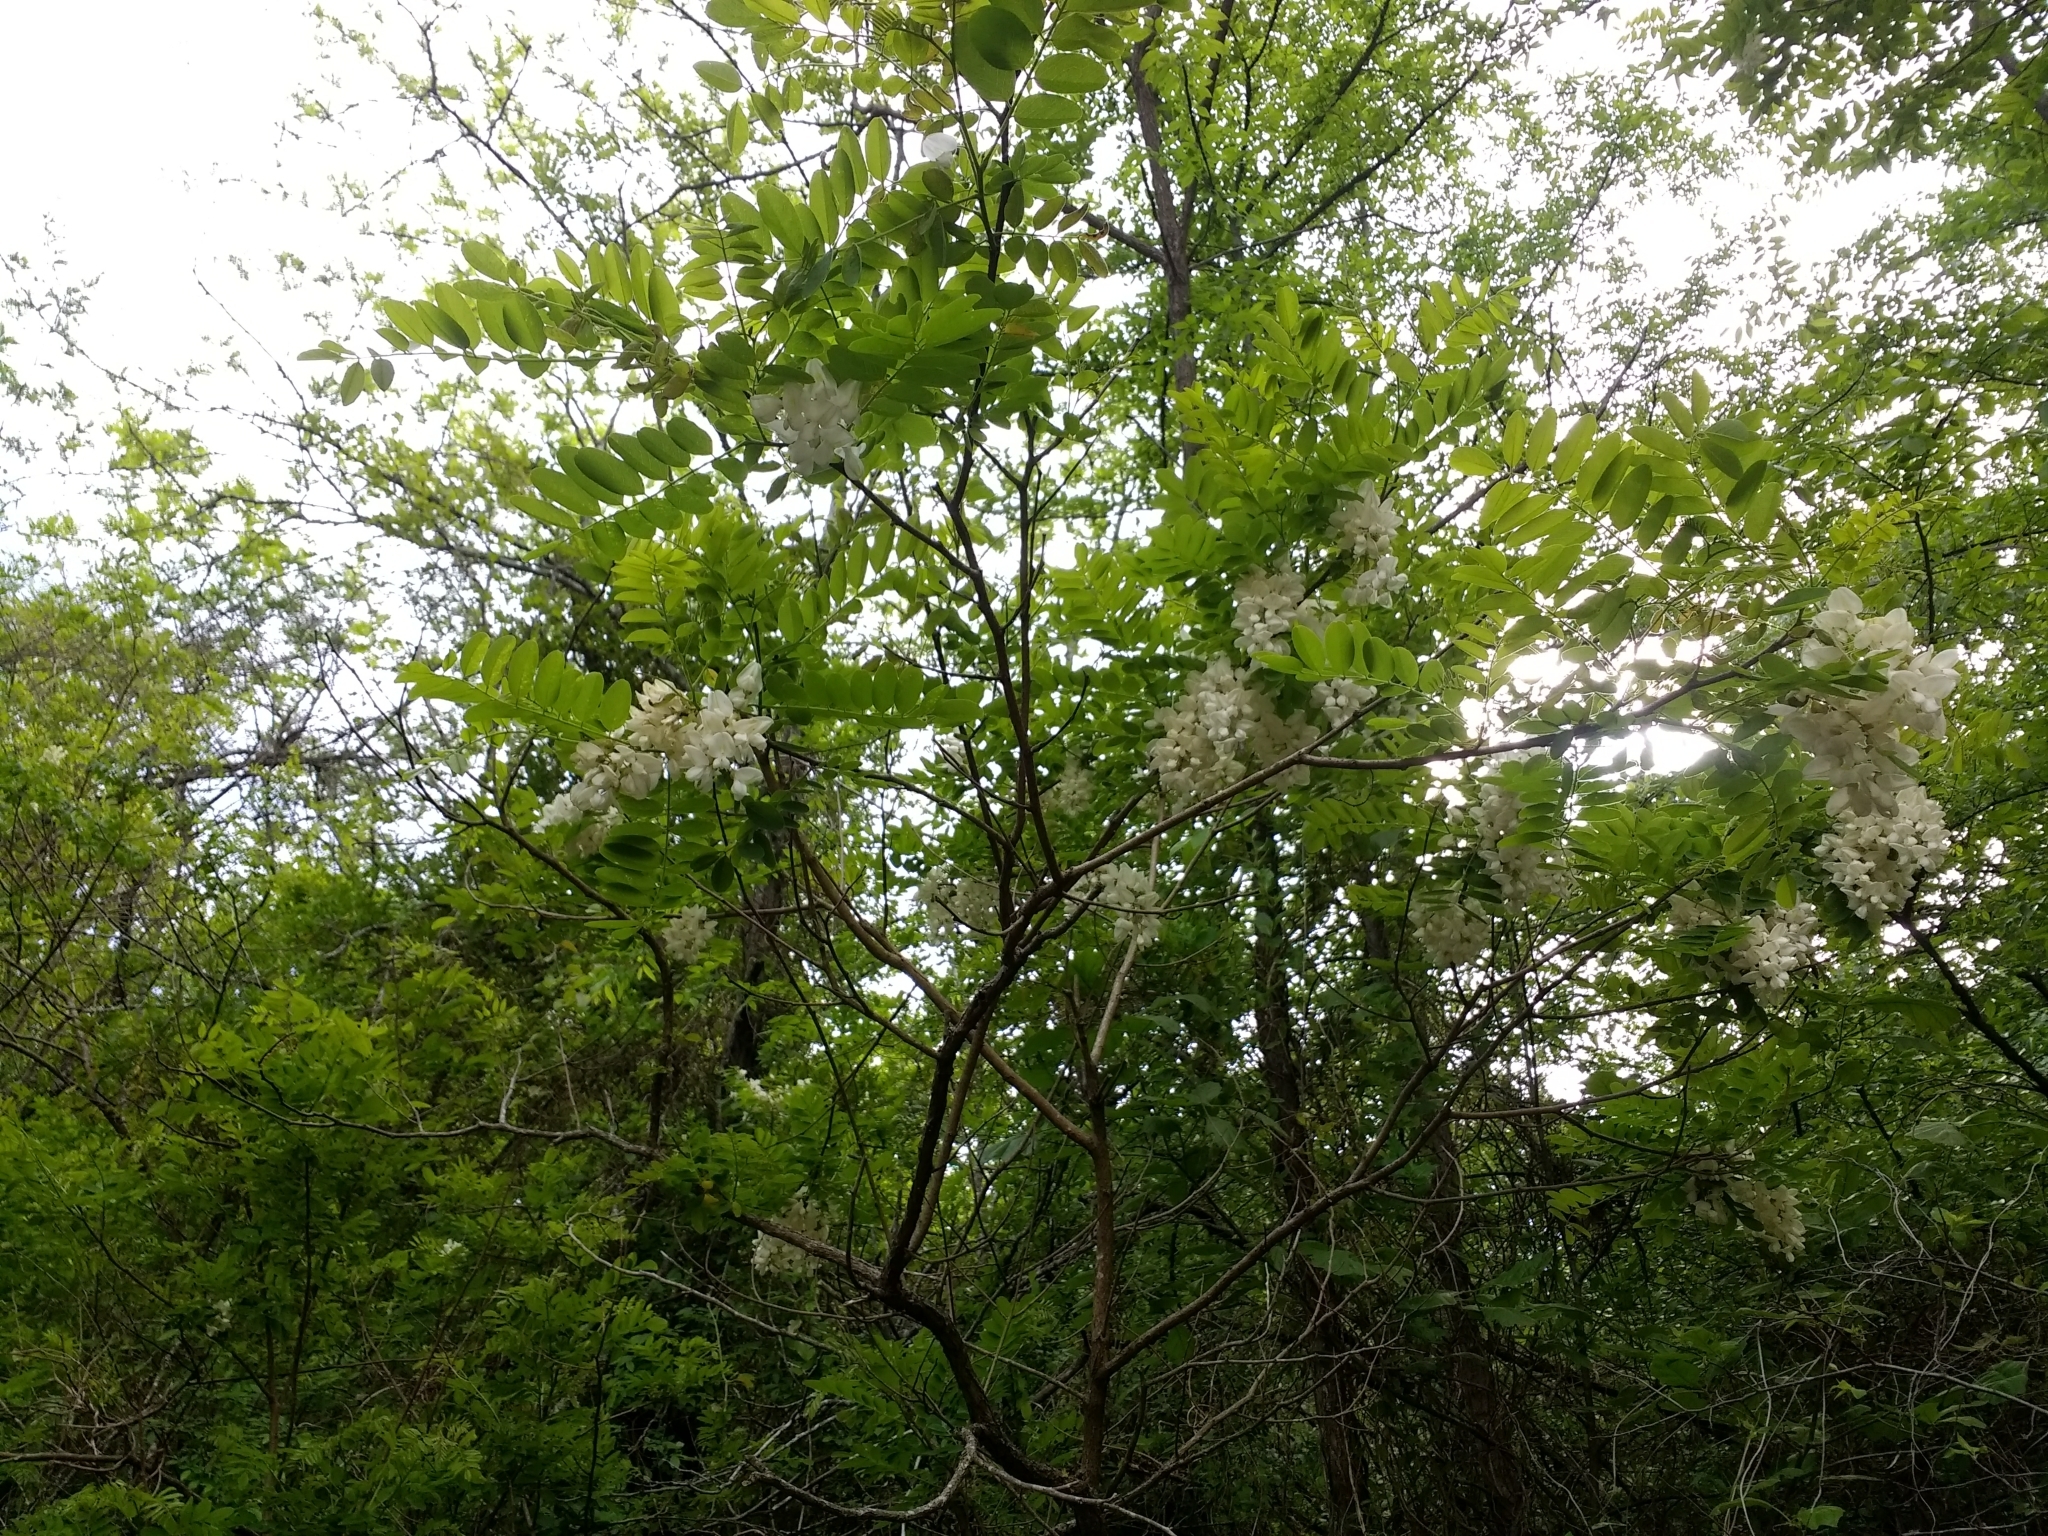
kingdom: Plantae
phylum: Tracheophyta
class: Magnoliopsida
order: Fabales
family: Fabaceae
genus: Robinia
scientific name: Robinia pseudoacacia
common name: Black locust
